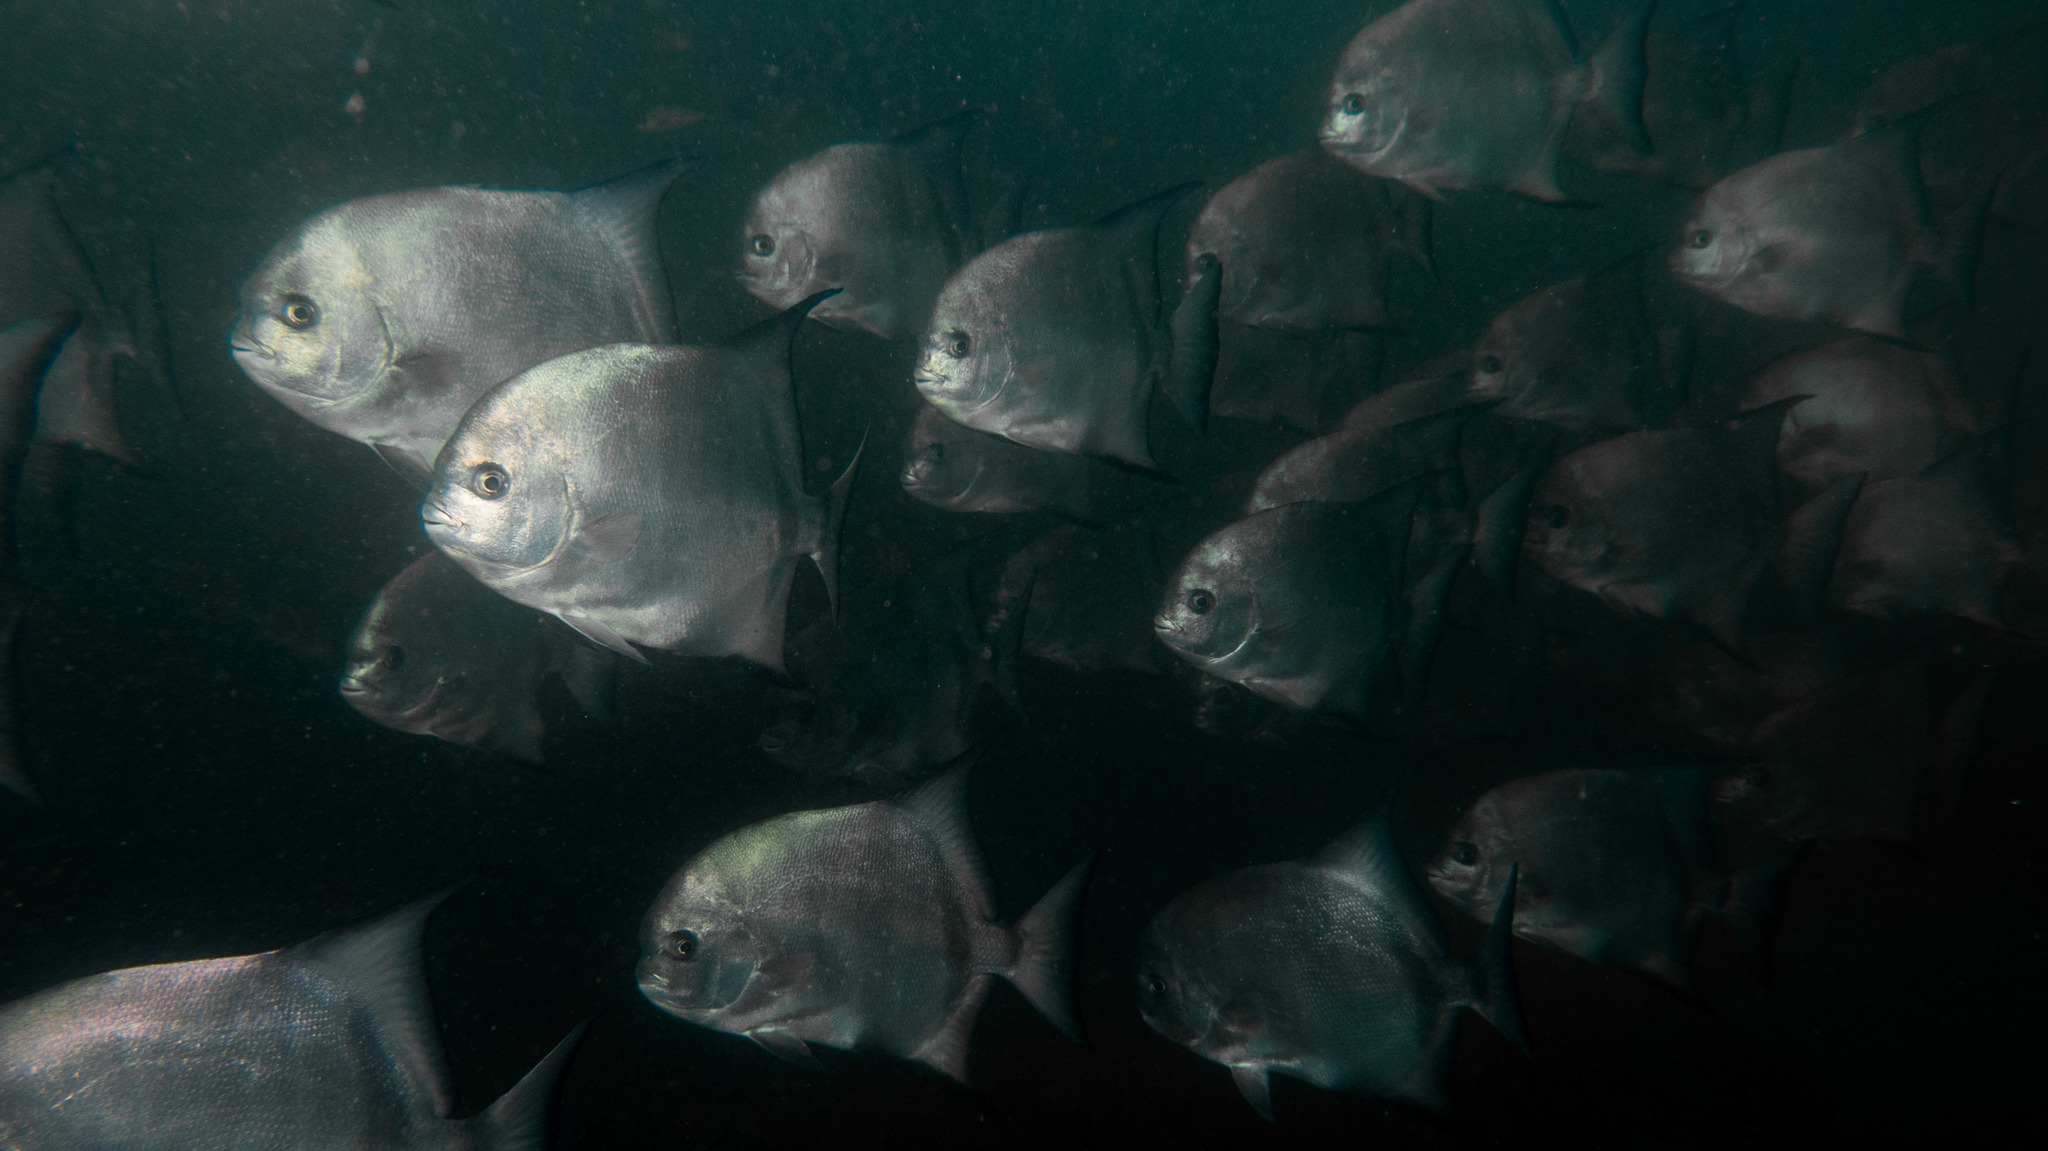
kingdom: Animalia
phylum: Chordata
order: Perciformes
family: Ephippidae
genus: Chaetodipterus
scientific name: Chaetodipterus faber
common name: Ocean cobbler
